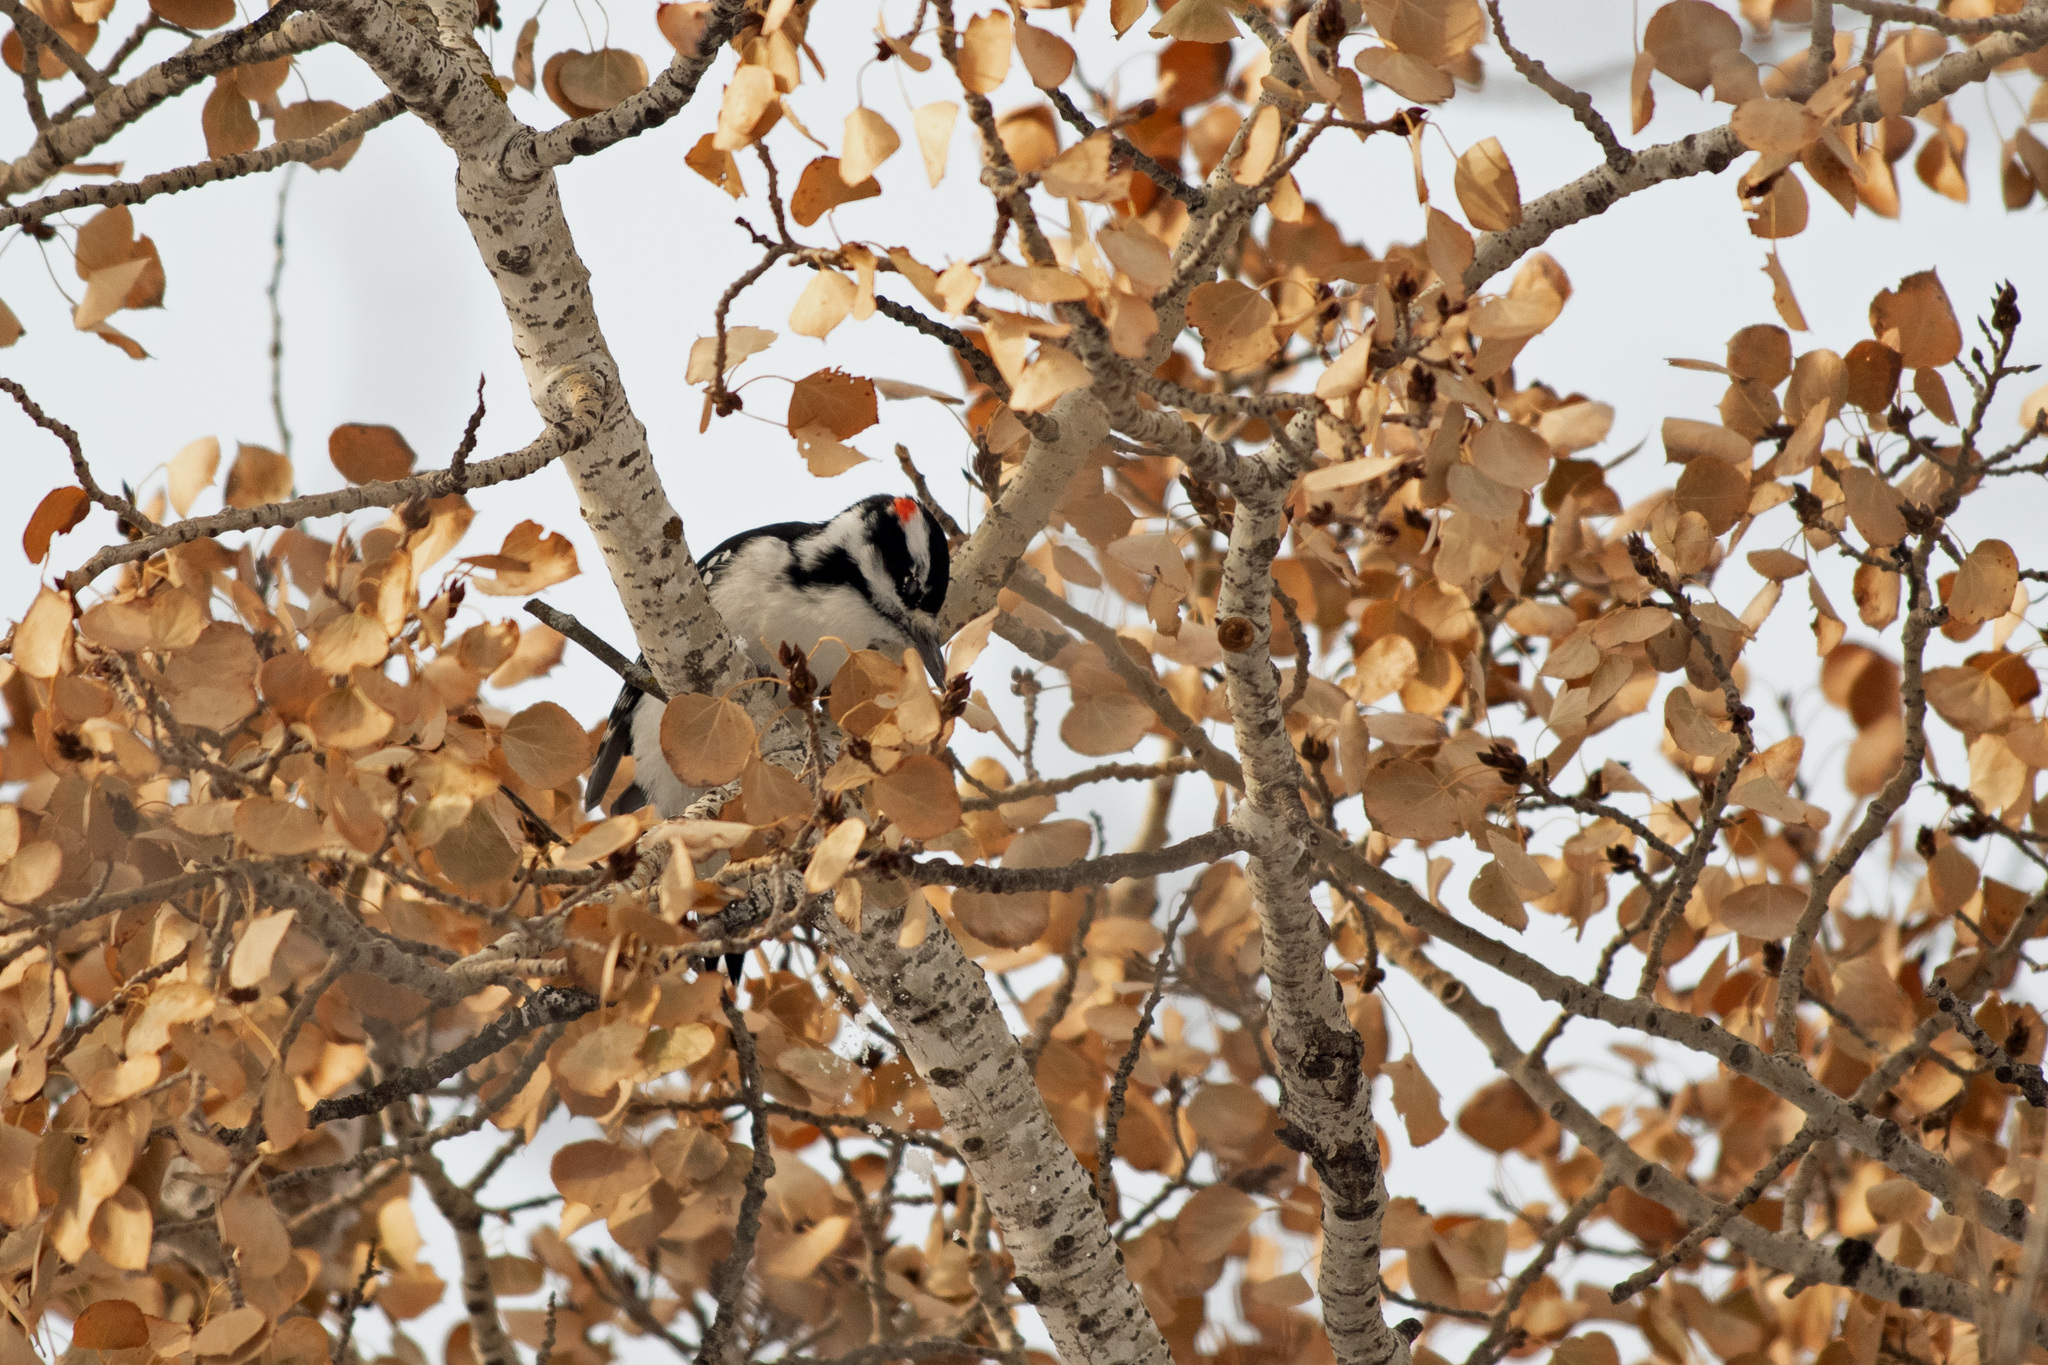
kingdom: Animalia
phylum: Chordata
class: Aves
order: Piciformes
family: Picidae
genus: Leuconotopicus
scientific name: Leuconotopicus villosus
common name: Hairy woodpecker
